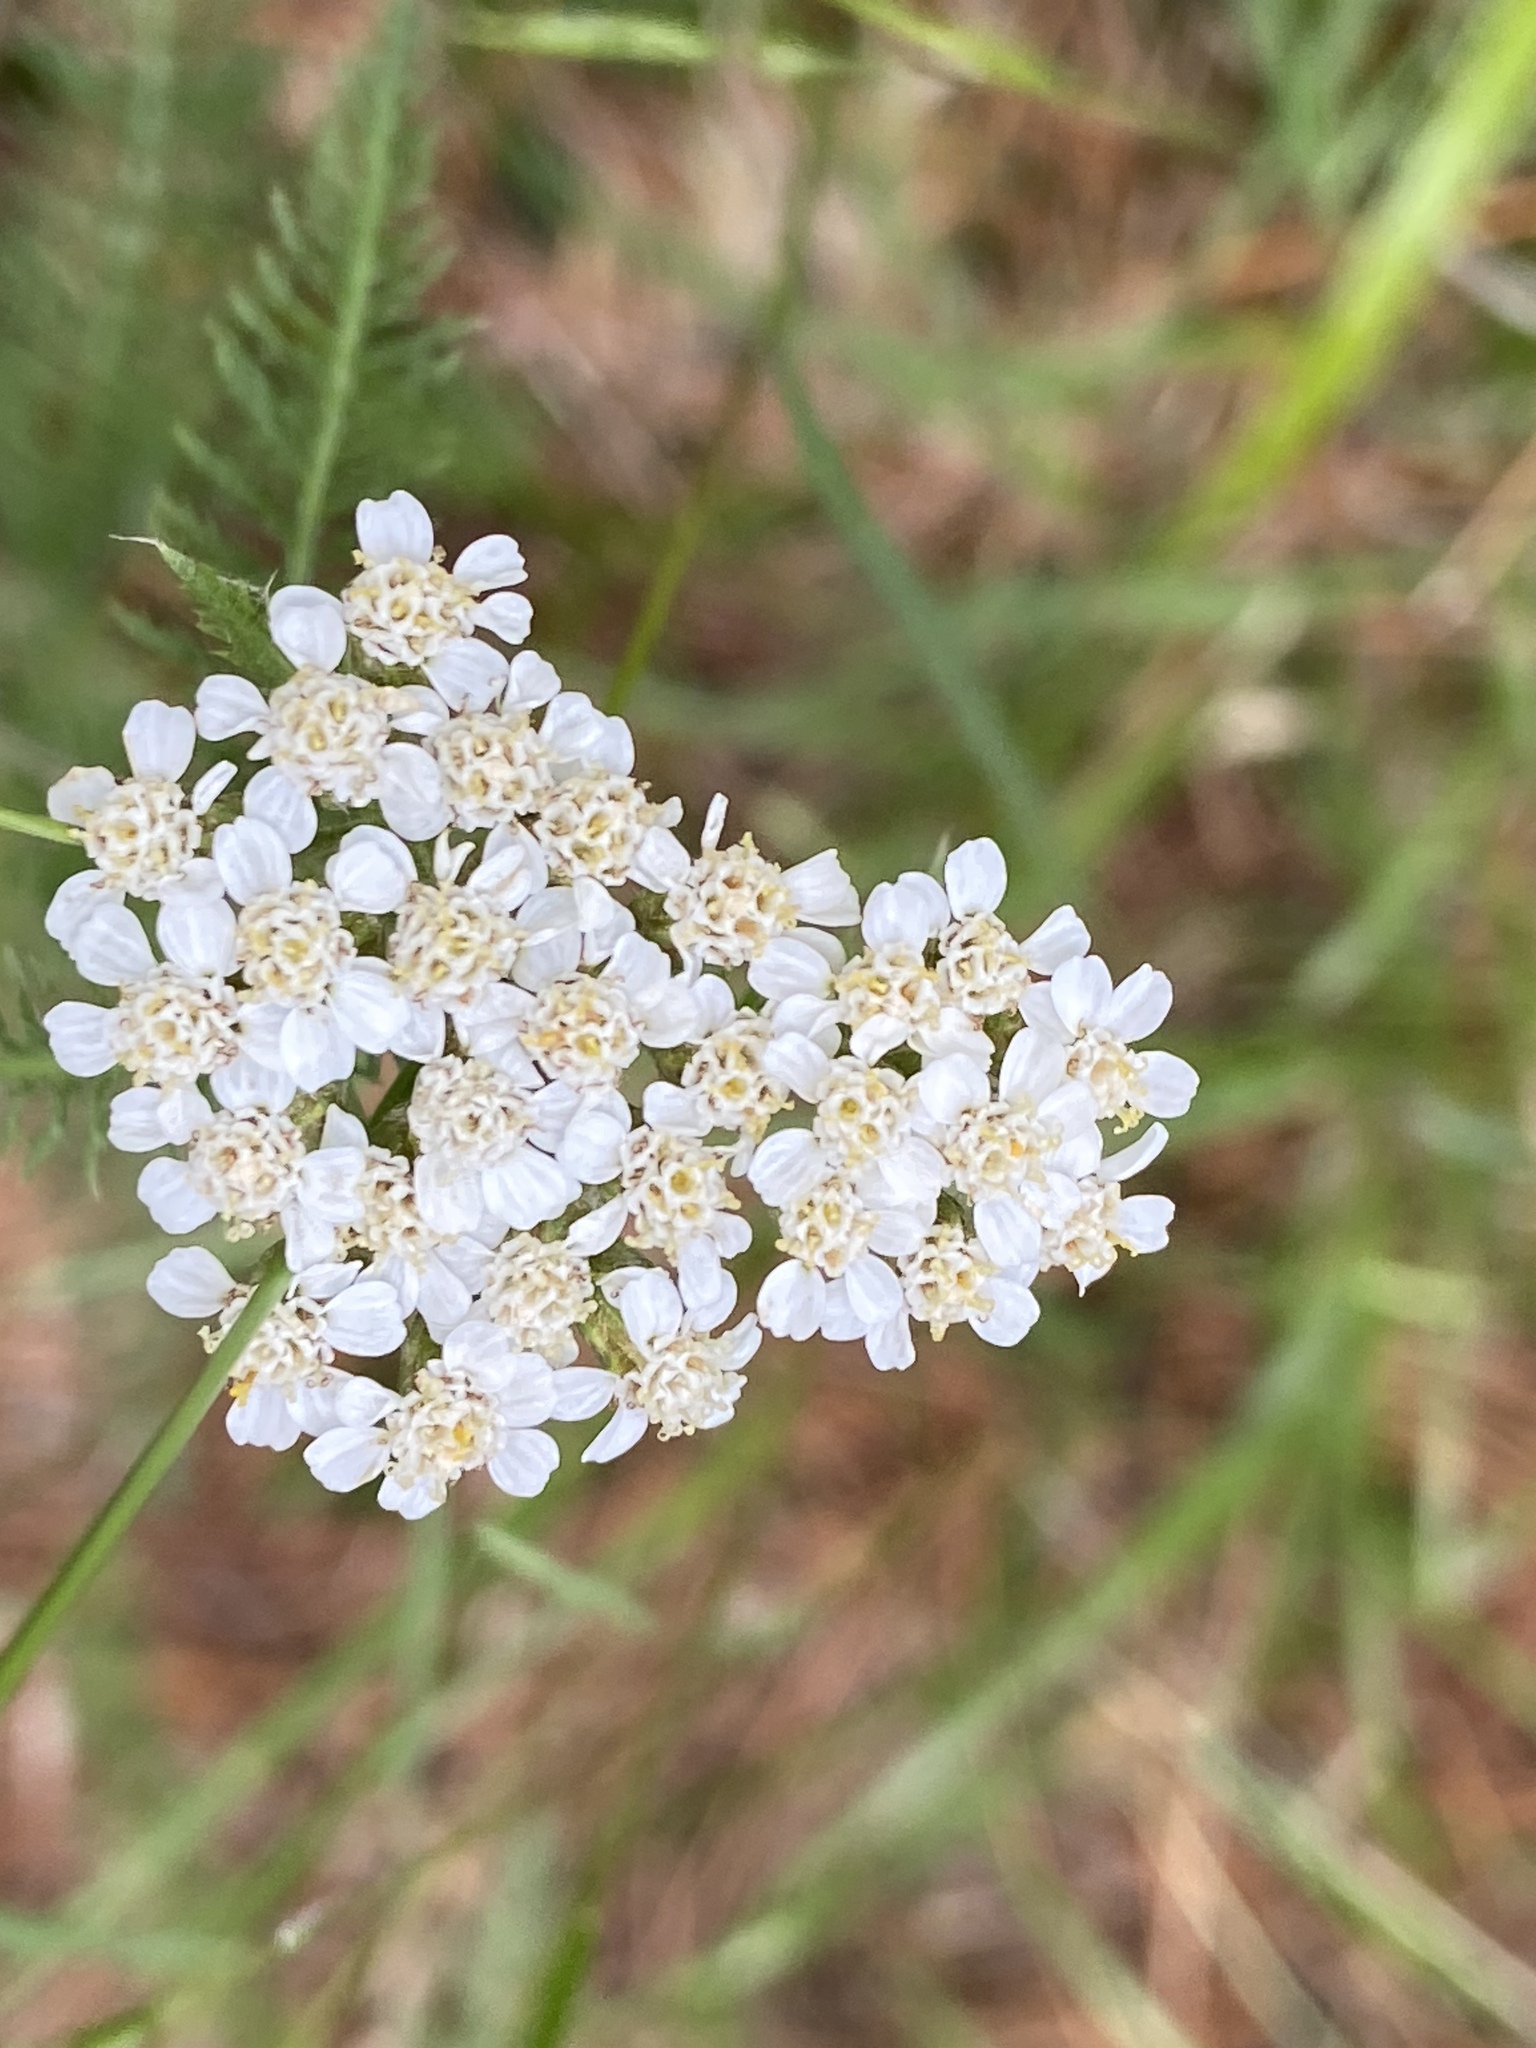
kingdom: Plantae
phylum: Tracheophyta
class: Magnoliopsida
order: Asterales
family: Asteraceae
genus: Achillea
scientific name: Achillea millefolium
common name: Yarrow
